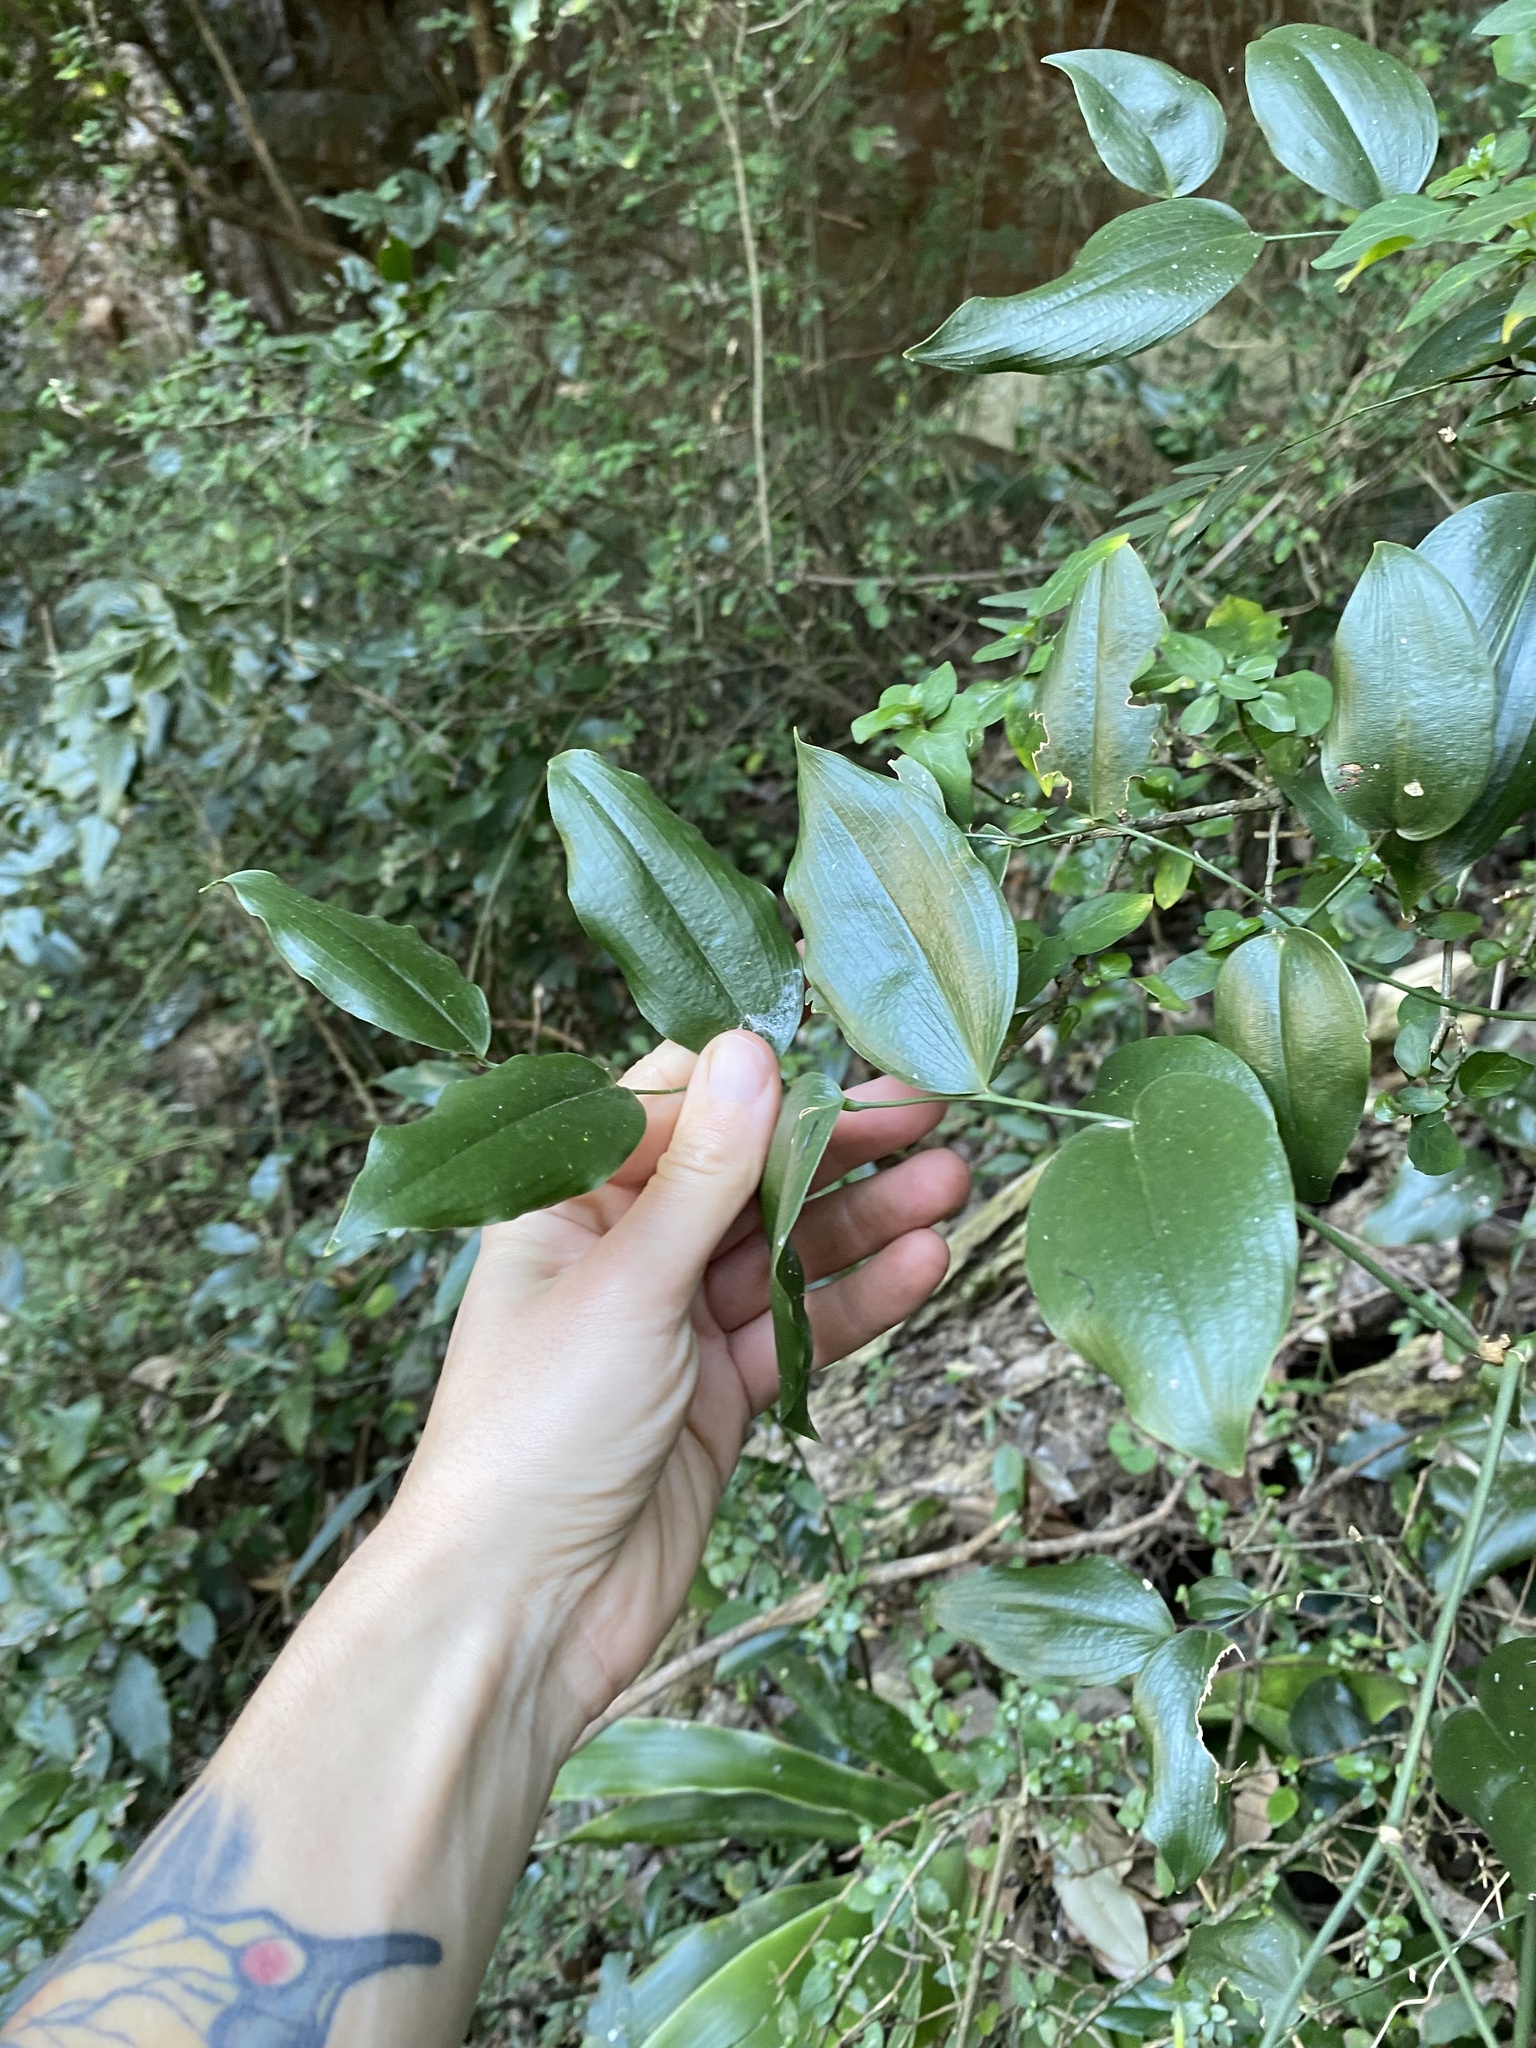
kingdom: Plantae
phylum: Tracheophyta
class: Liliopsida
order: Asparagales
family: Asparagaceae
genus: Behnia
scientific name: Behnia reticulata
